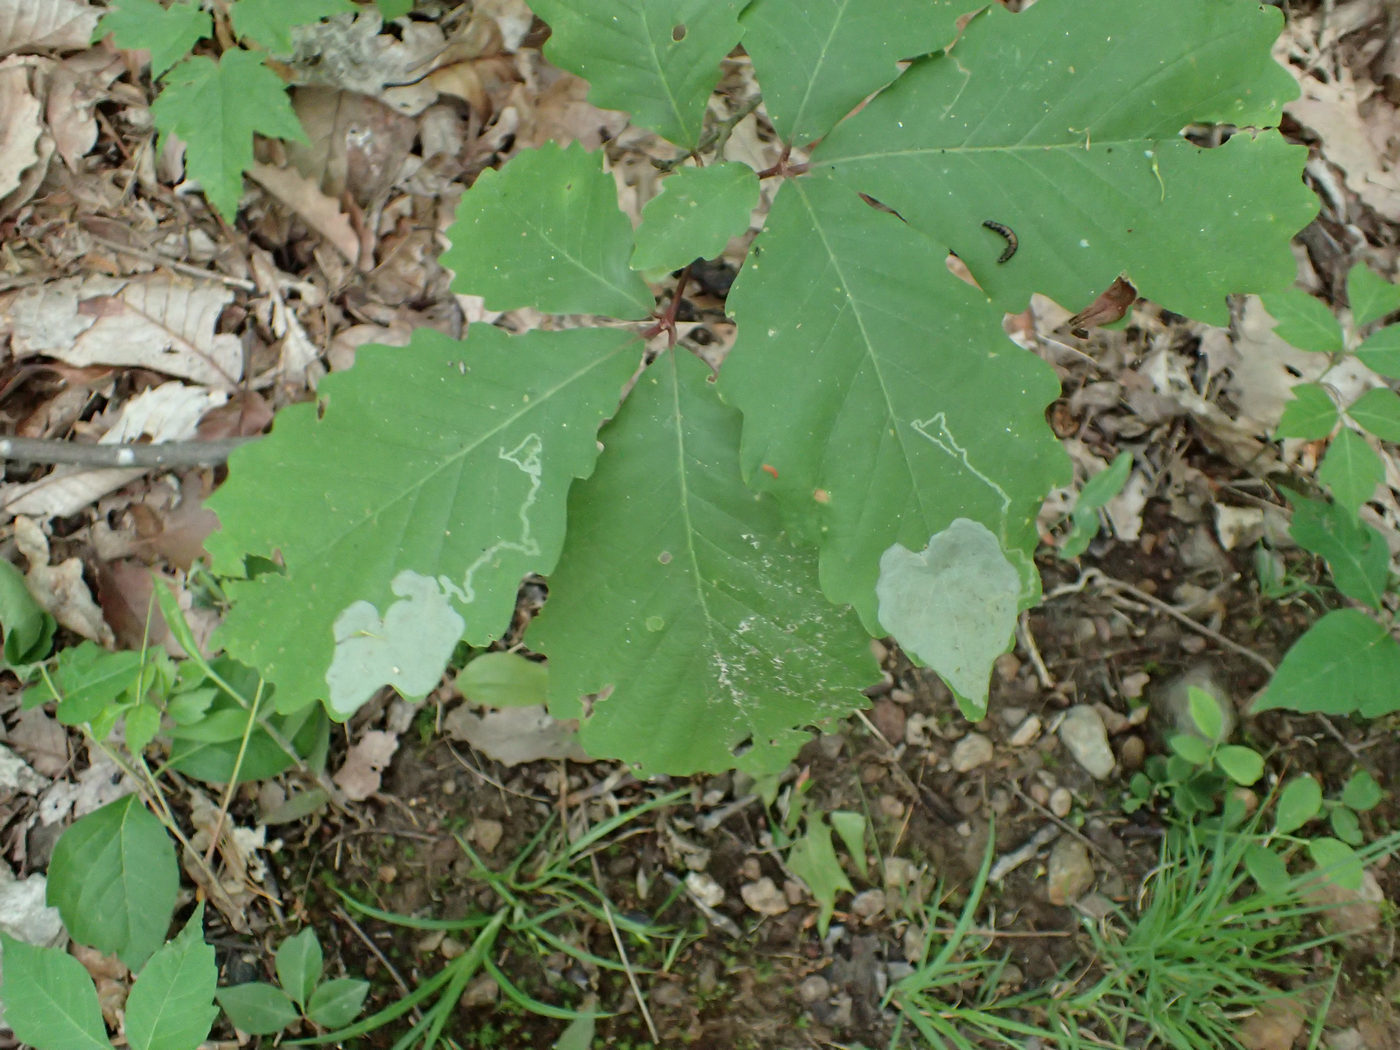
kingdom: Animalia
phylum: Arthropoda
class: Insecta
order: Lepidoptera
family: Gracillariidae
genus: Cryptolectica
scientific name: Cryptolectica
